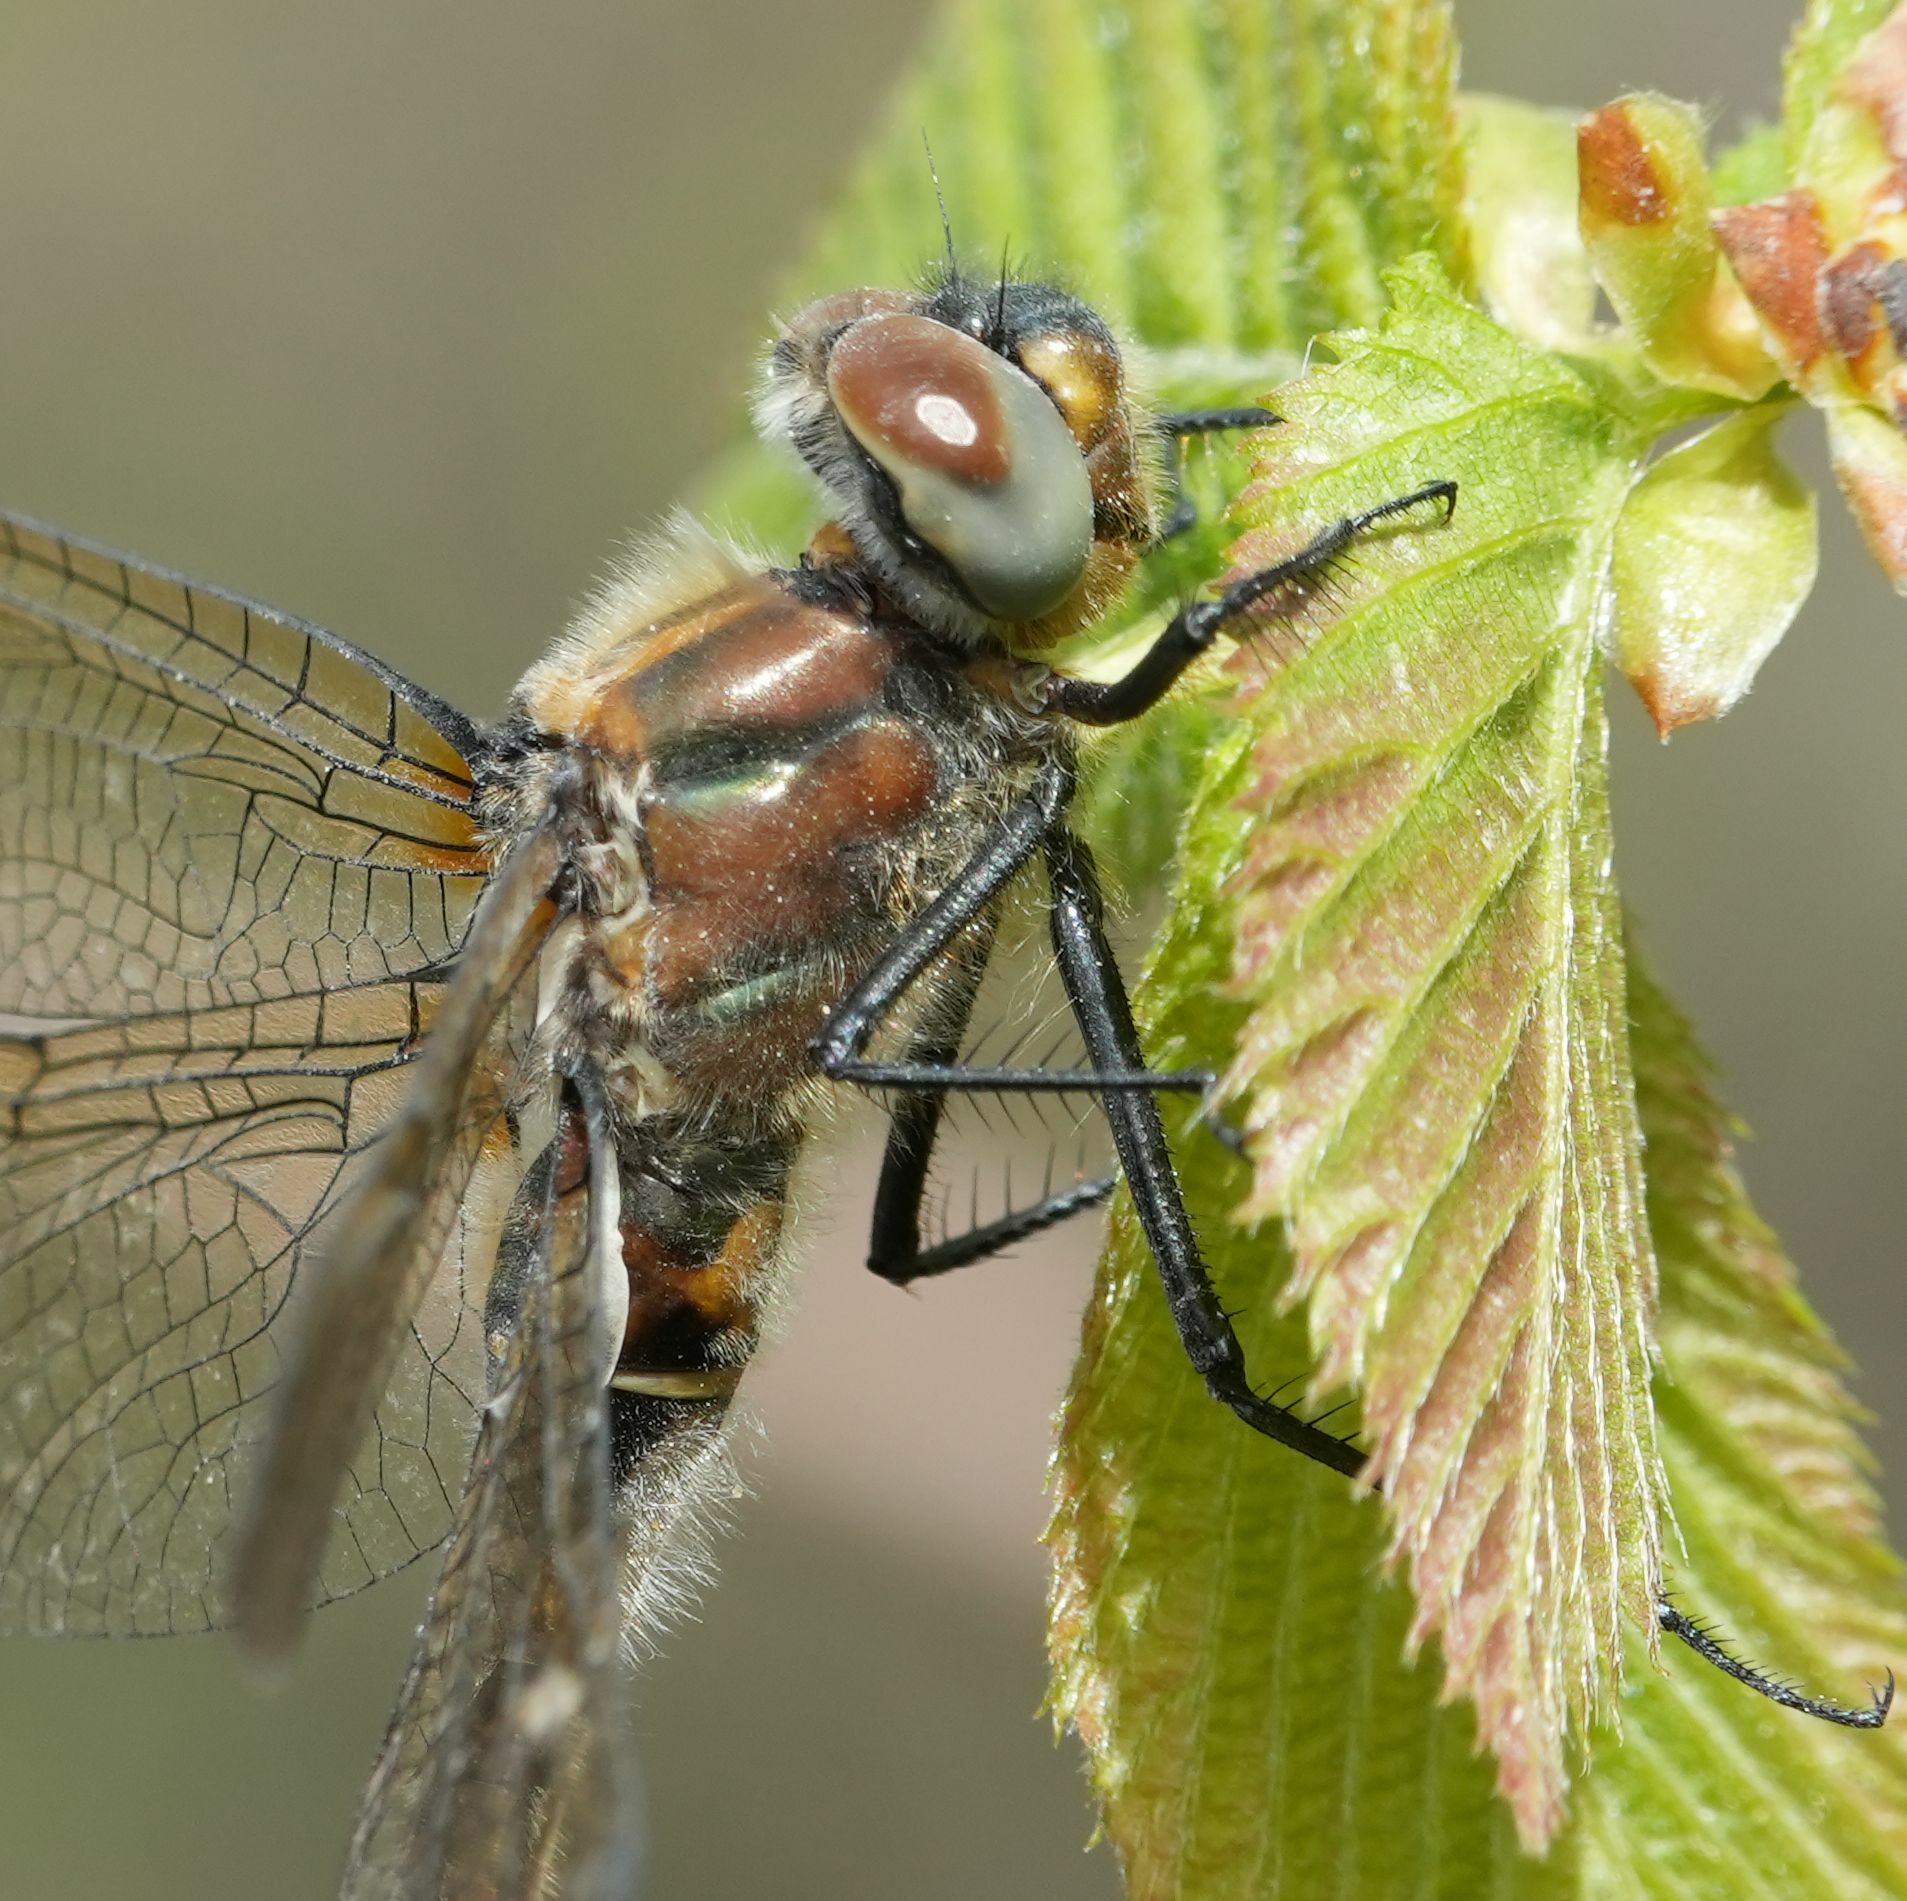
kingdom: Animalia
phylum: Arthropoda
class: Insecta
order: Odonata
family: Corduliidae
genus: Cordulia
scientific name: Cordulia shurtleffii
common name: American emerald
